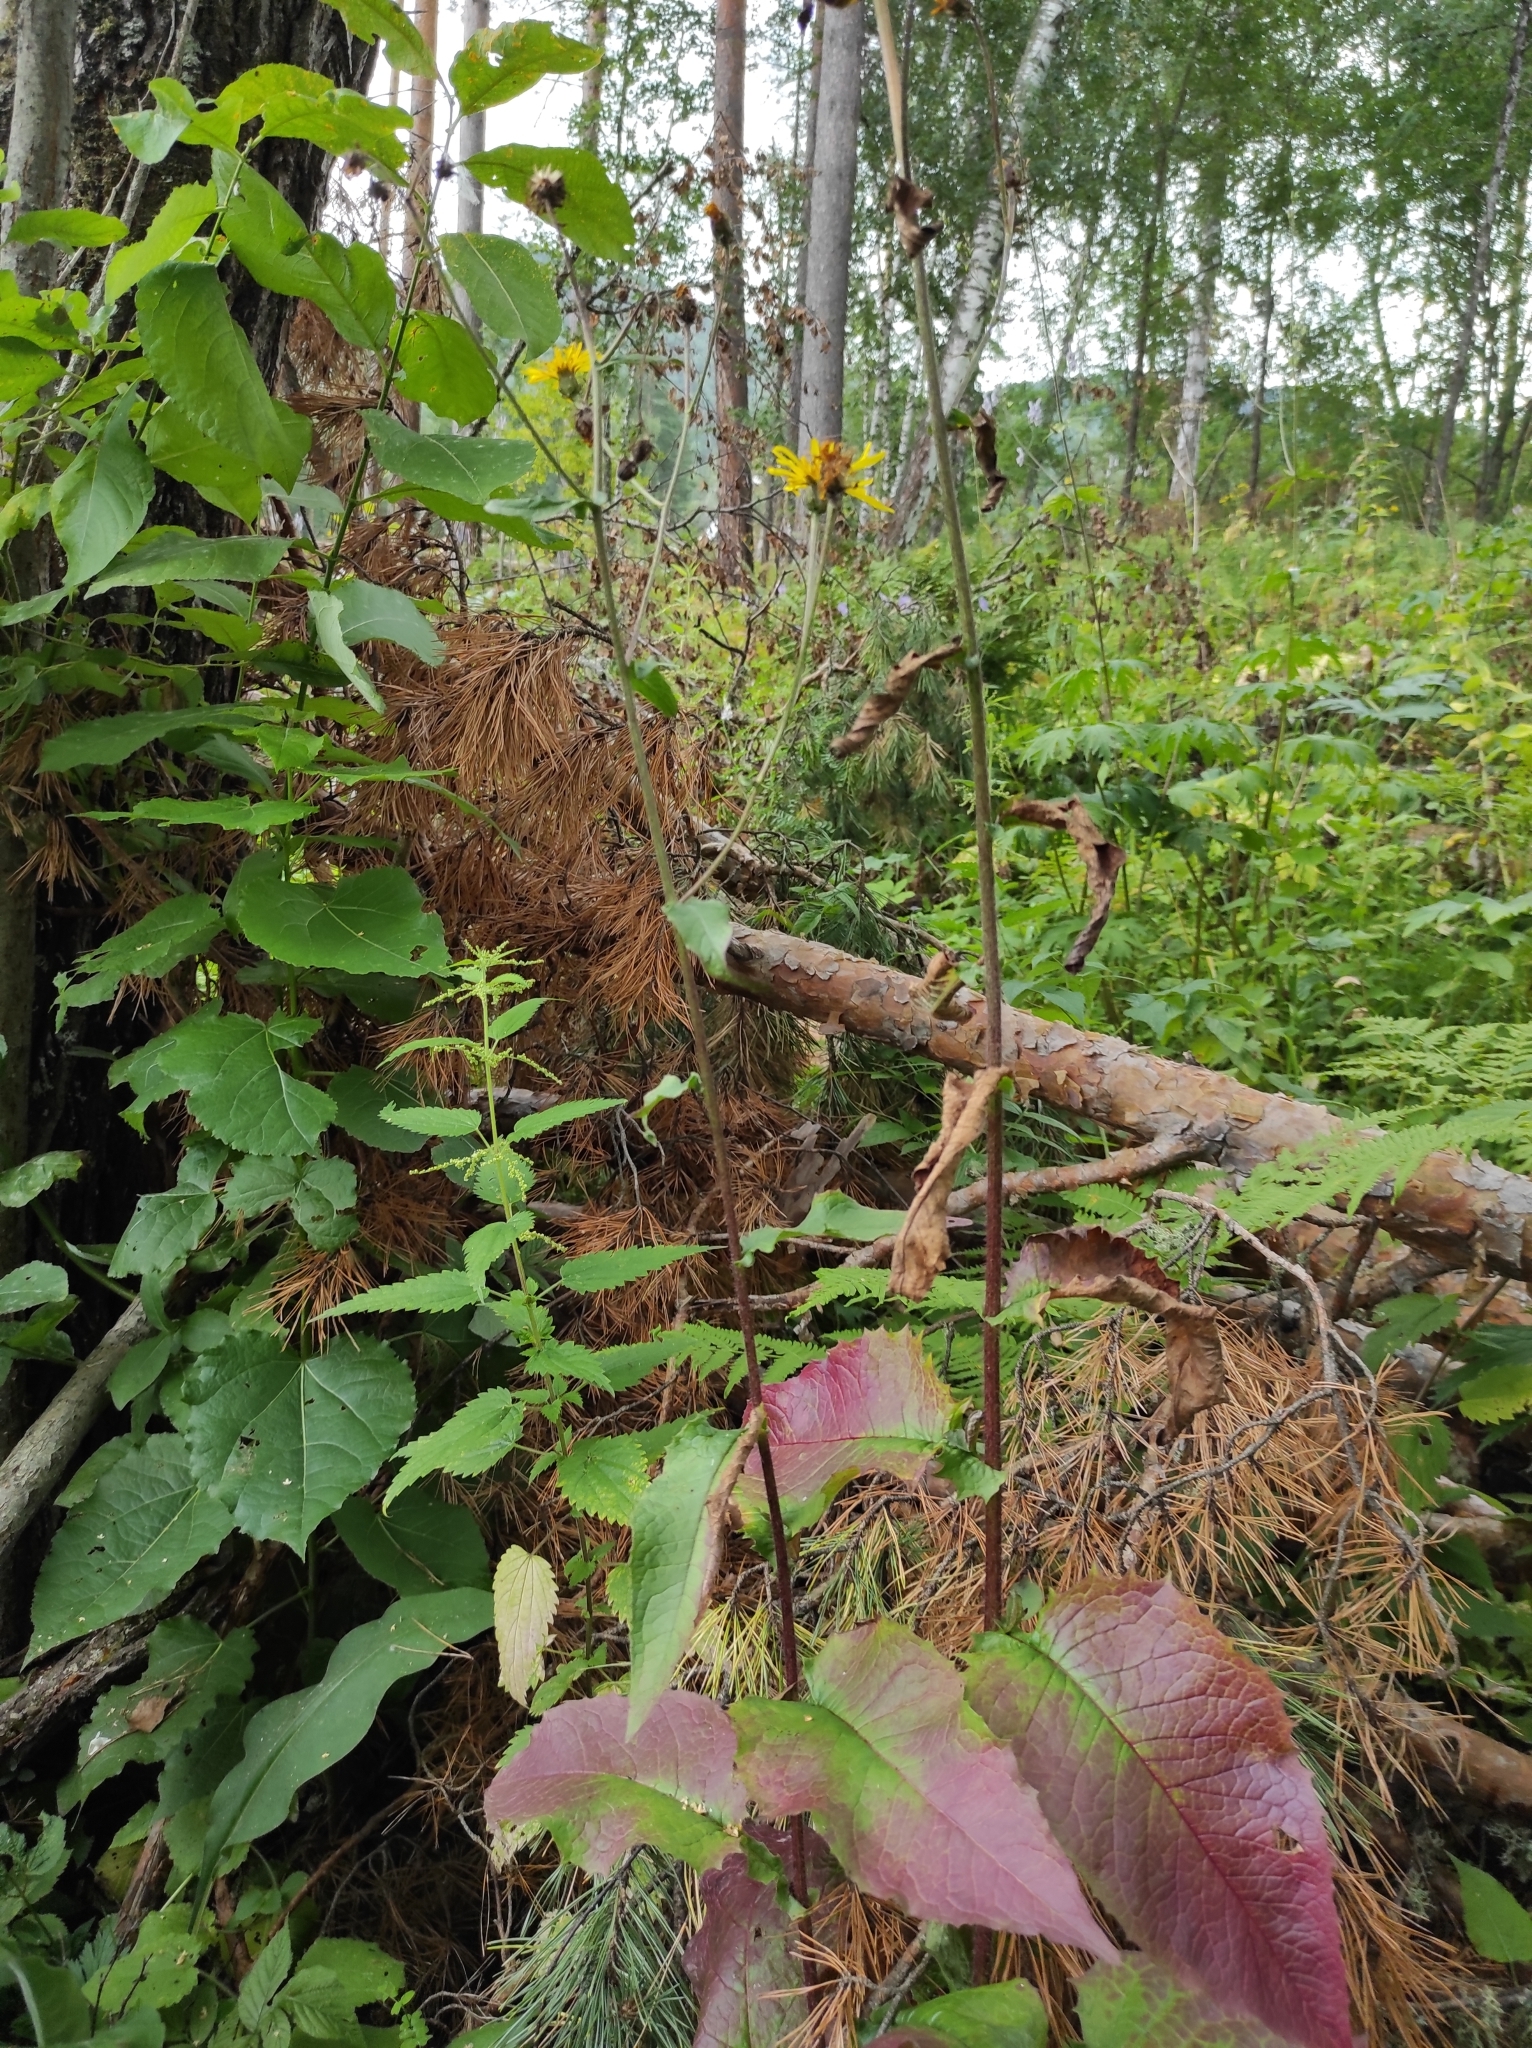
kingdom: Plantae
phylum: Tracheophyta
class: Magnoliopsida
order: Asterales
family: Asteraceae
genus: Crepis
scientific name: Crepis sibirica
